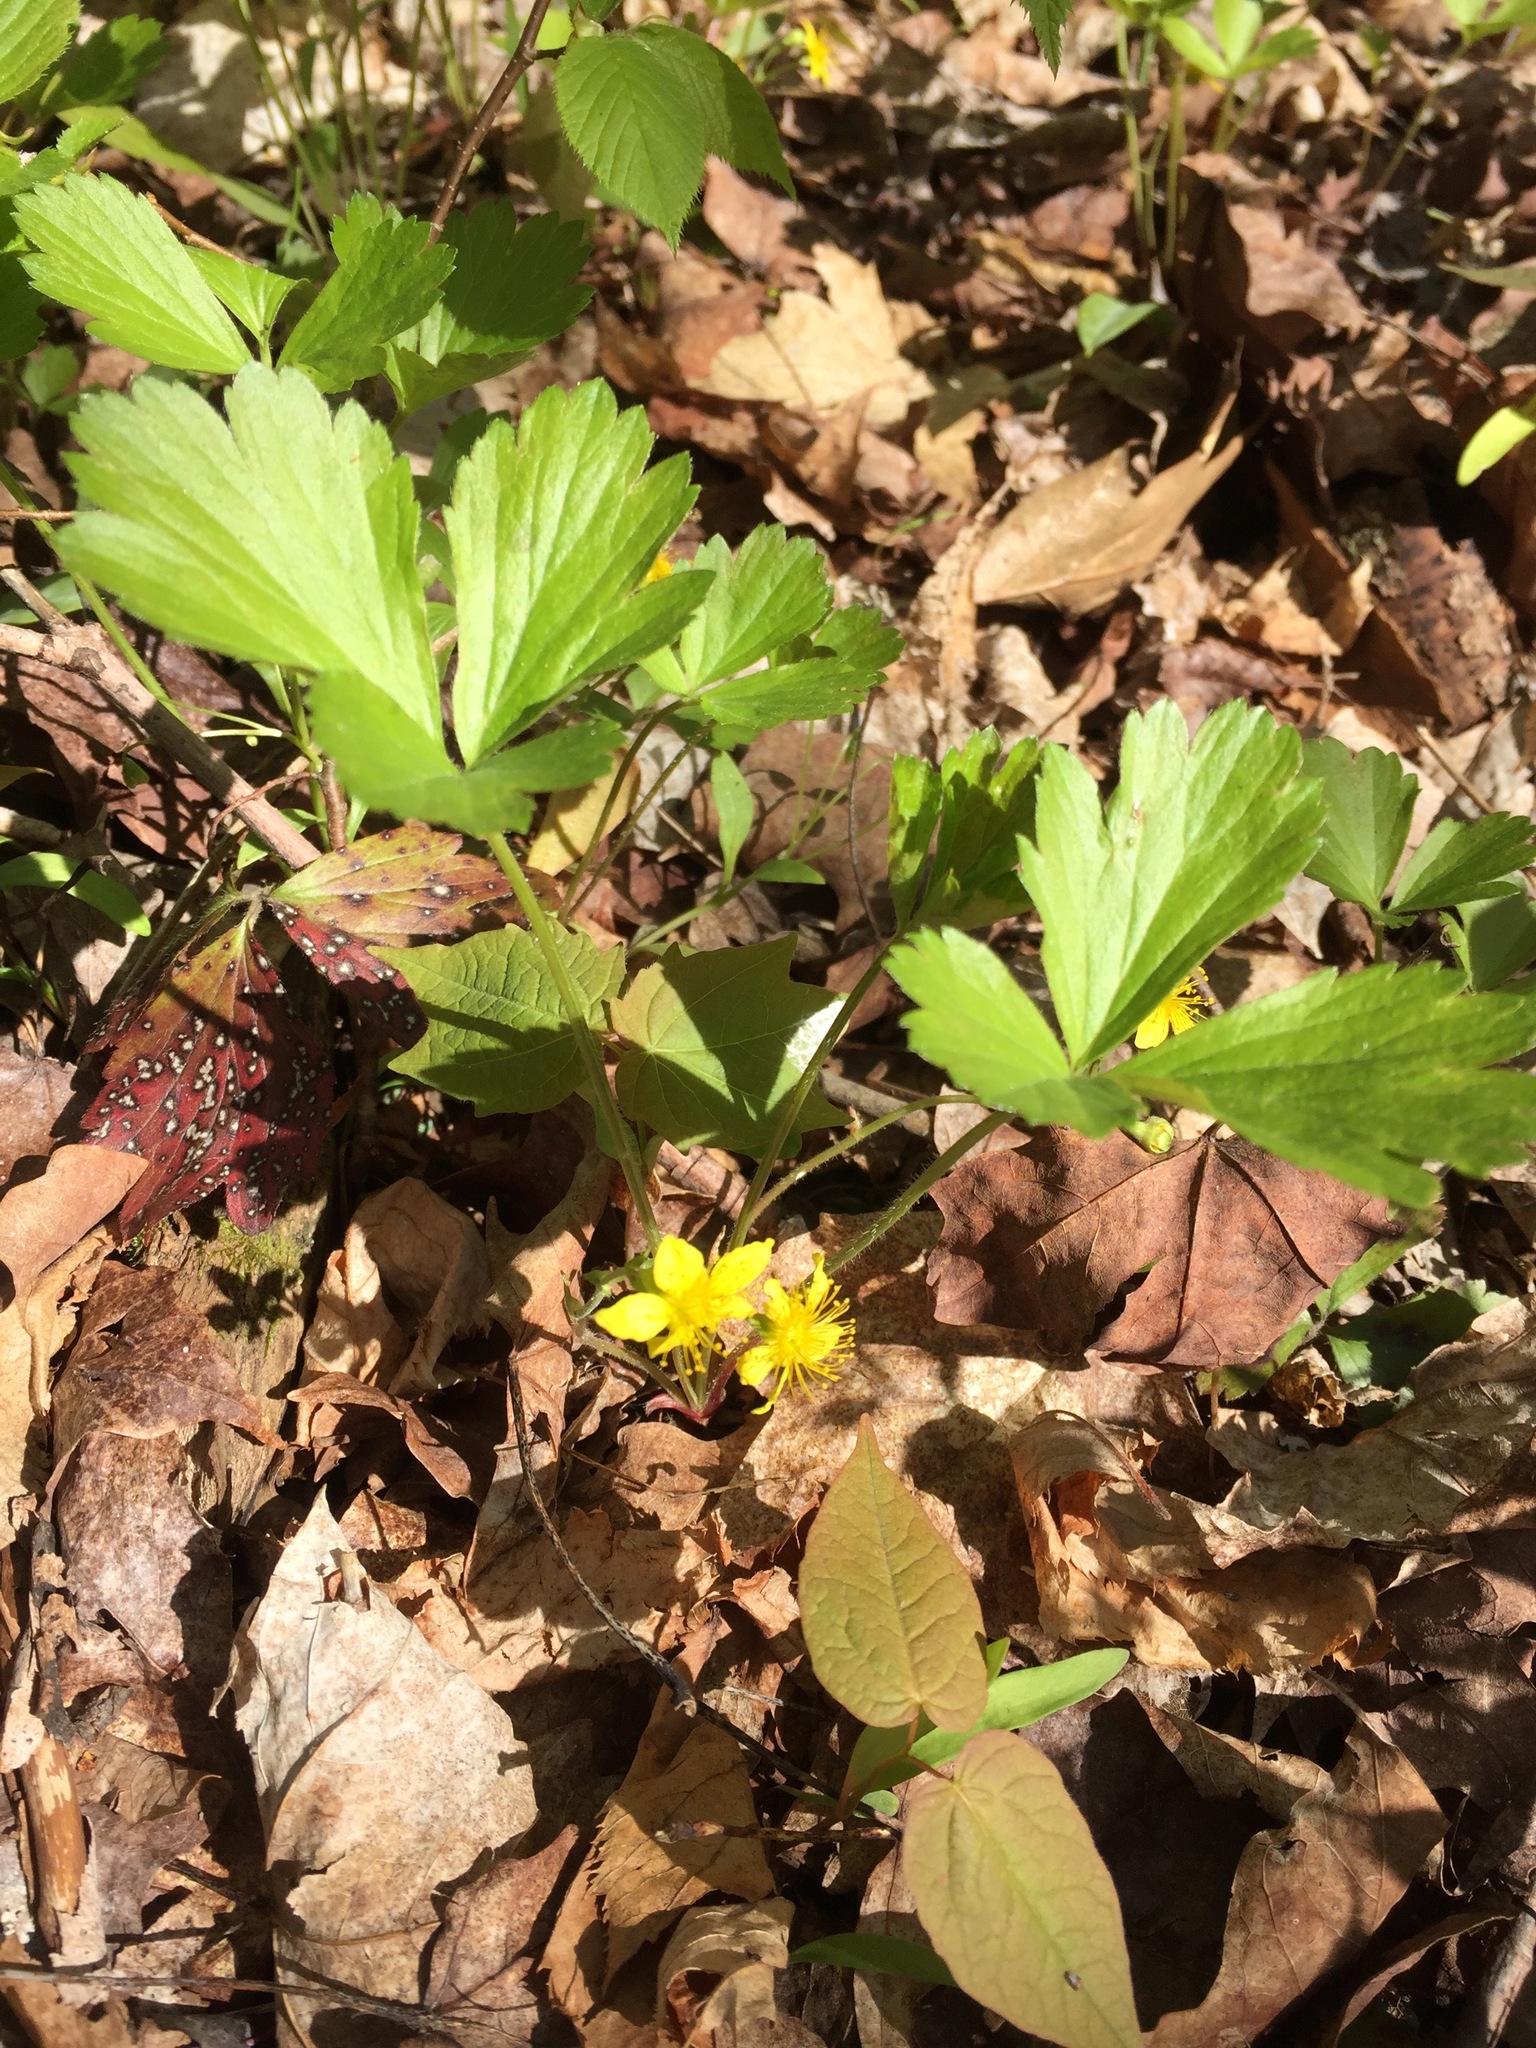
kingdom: Plantae
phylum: Tracheophyta
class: Magnoliopsida
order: Rosales
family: Rosaceae
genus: Geum
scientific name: Geum fragarioides
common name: Appalachian barren strawberry
